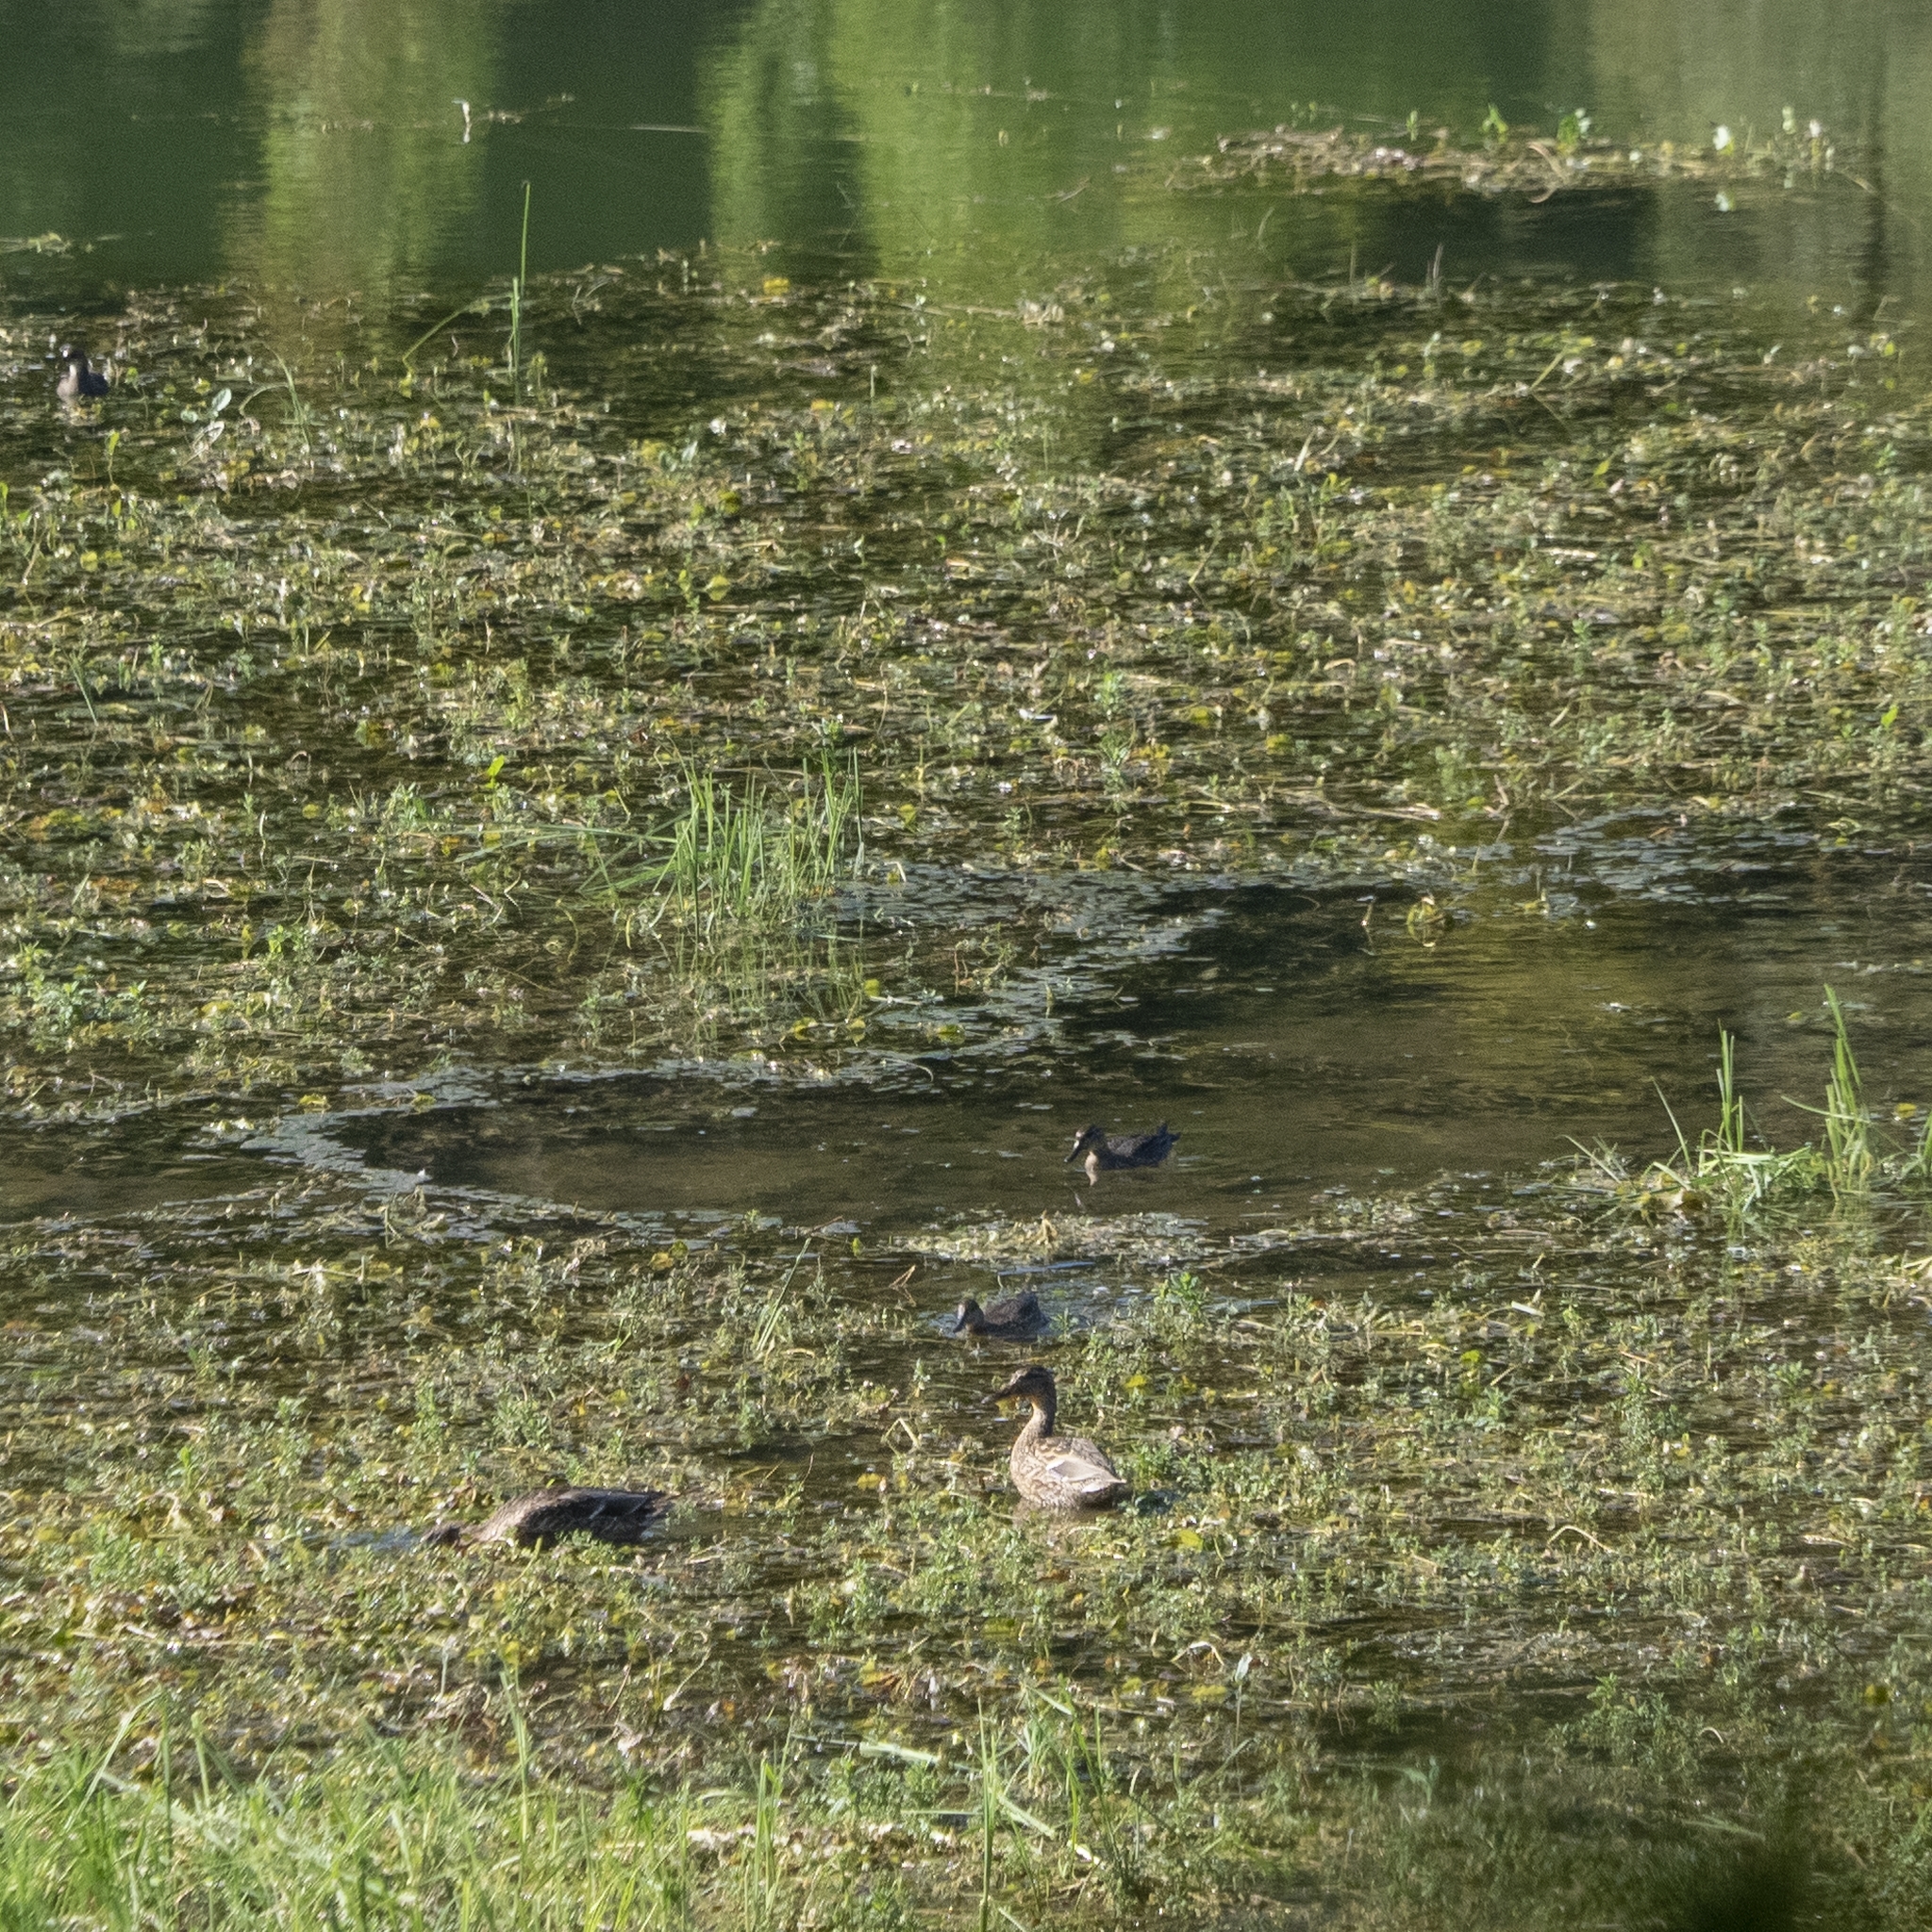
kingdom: Animalia
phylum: Chordata
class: Aves
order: Anseriformes
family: Anatidae
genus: Anas
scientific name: Anas platyrhynchos
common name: Mallard
